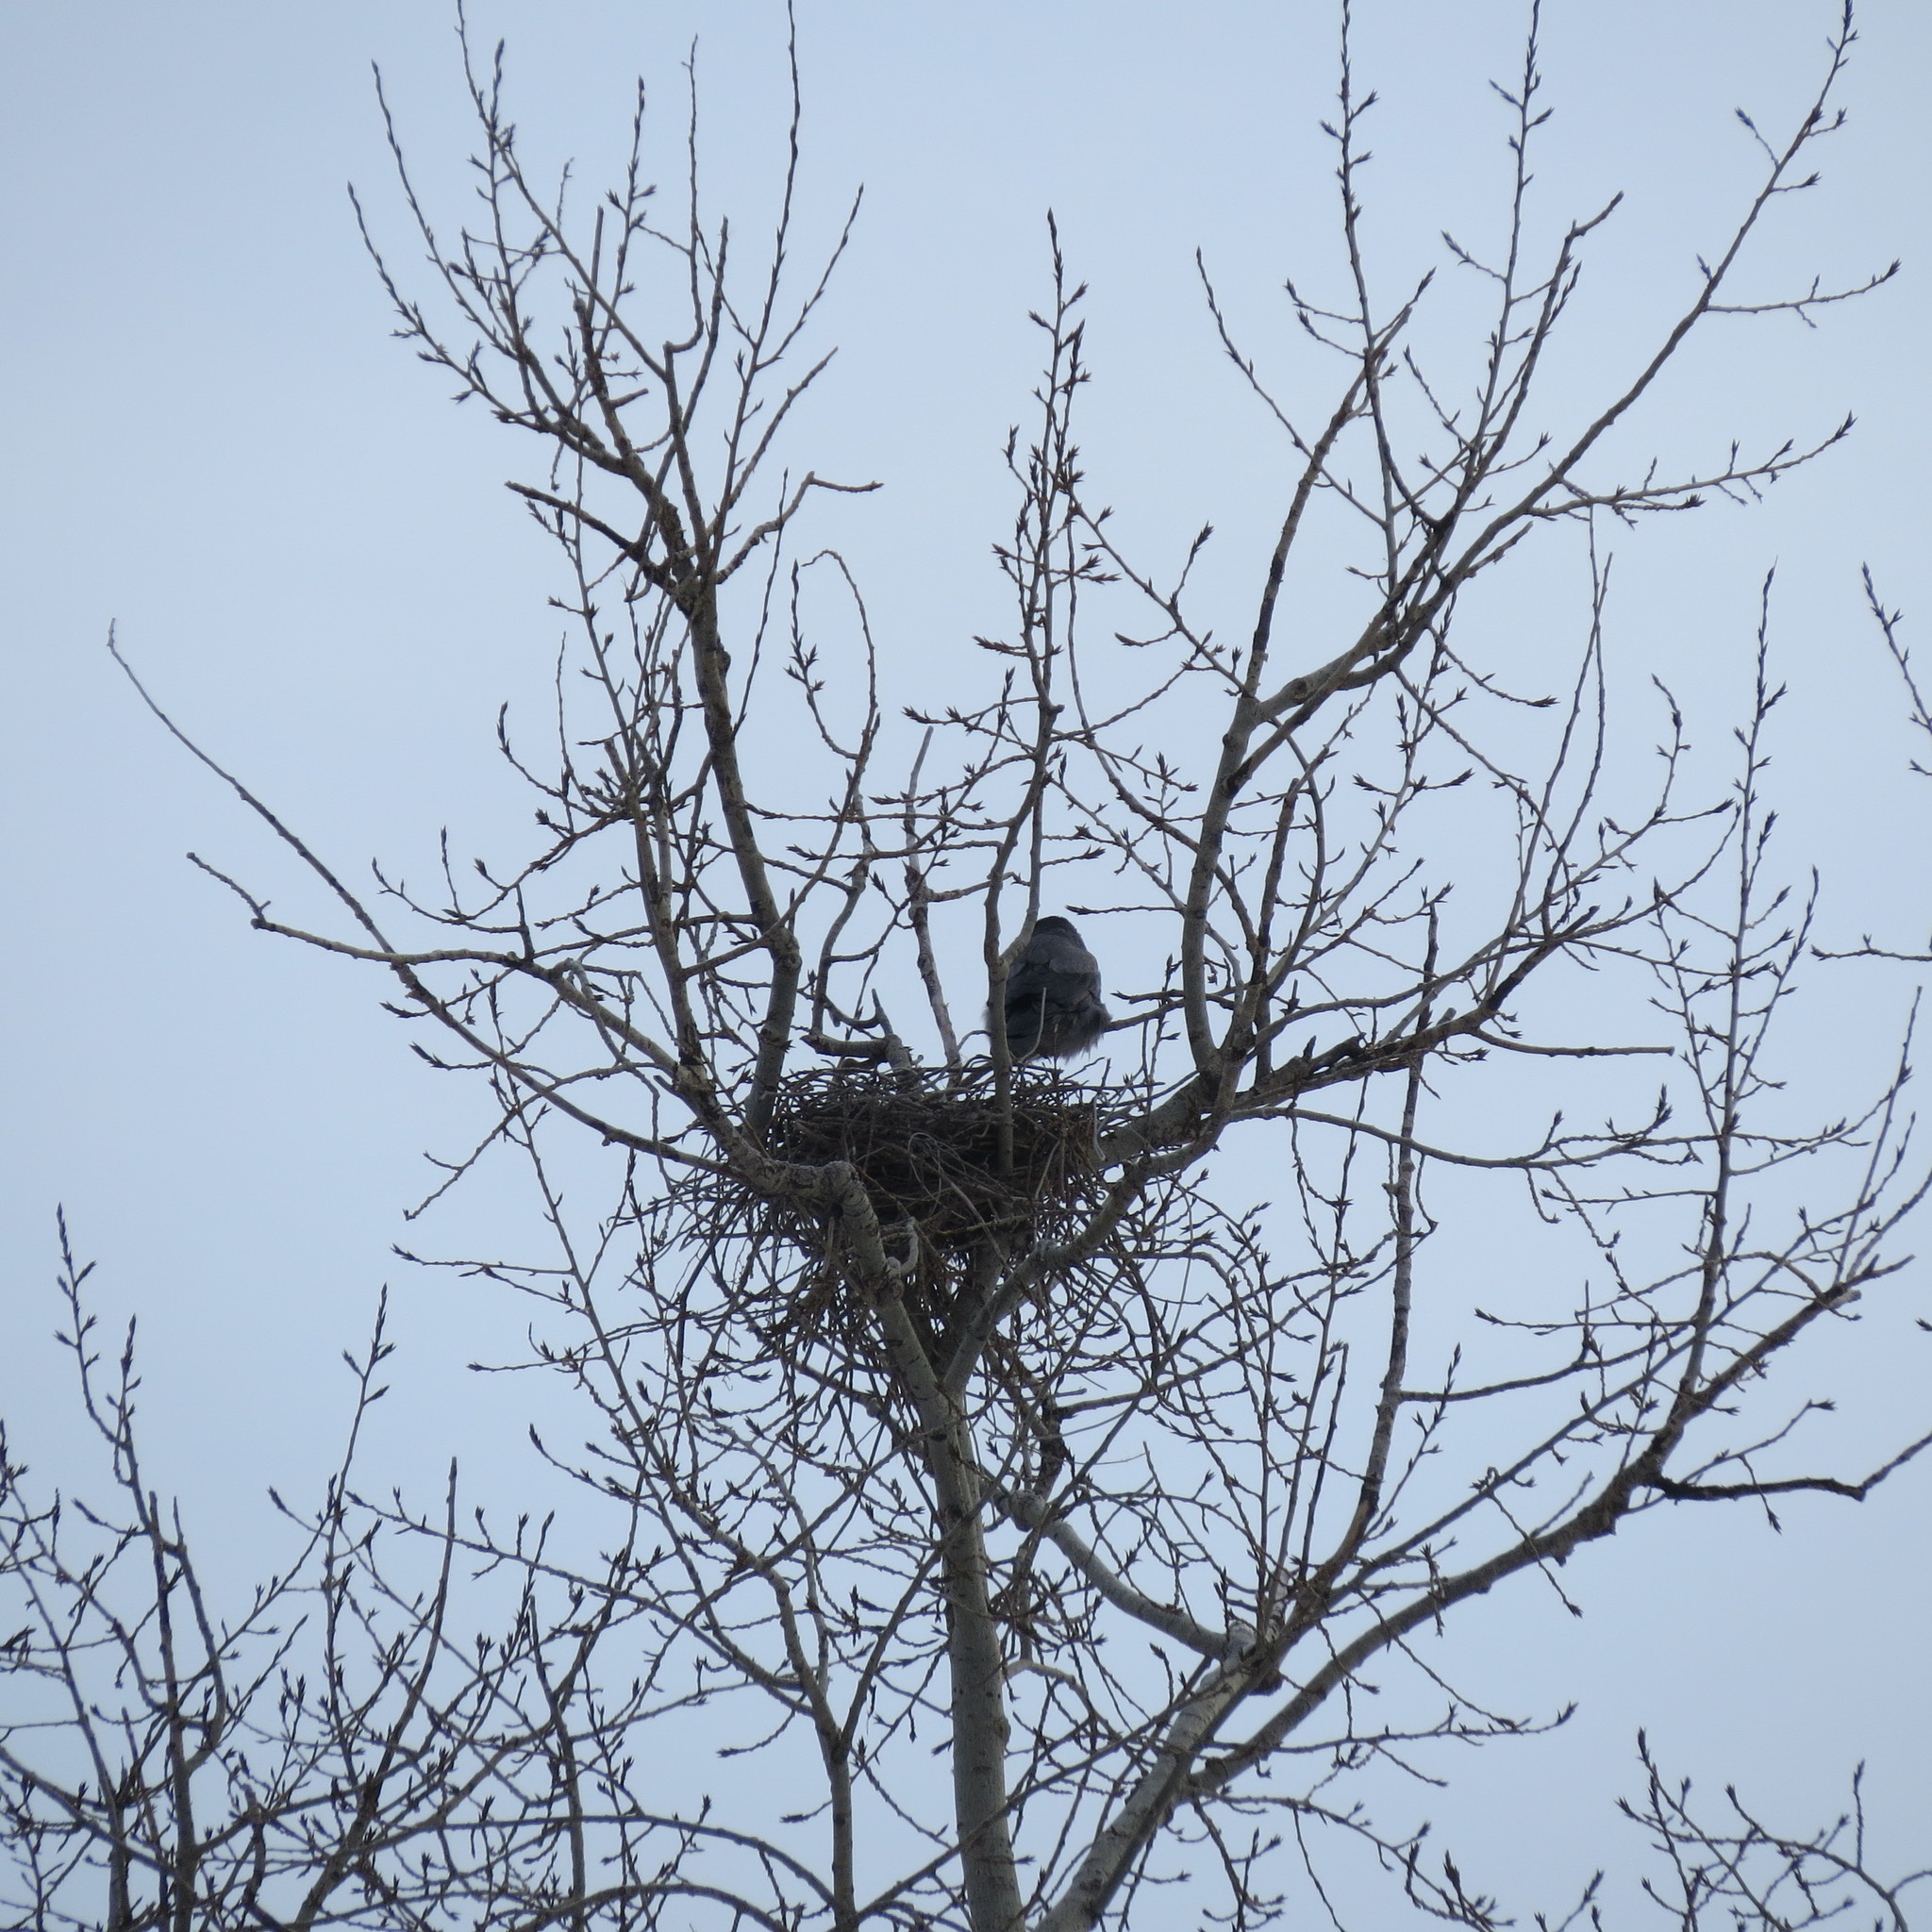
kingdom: Animalia
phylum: Chordata
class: Aves
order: Passeriformes
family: Corvidae
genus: Corvus
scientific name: Corvus cornix
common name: Hooded crow
